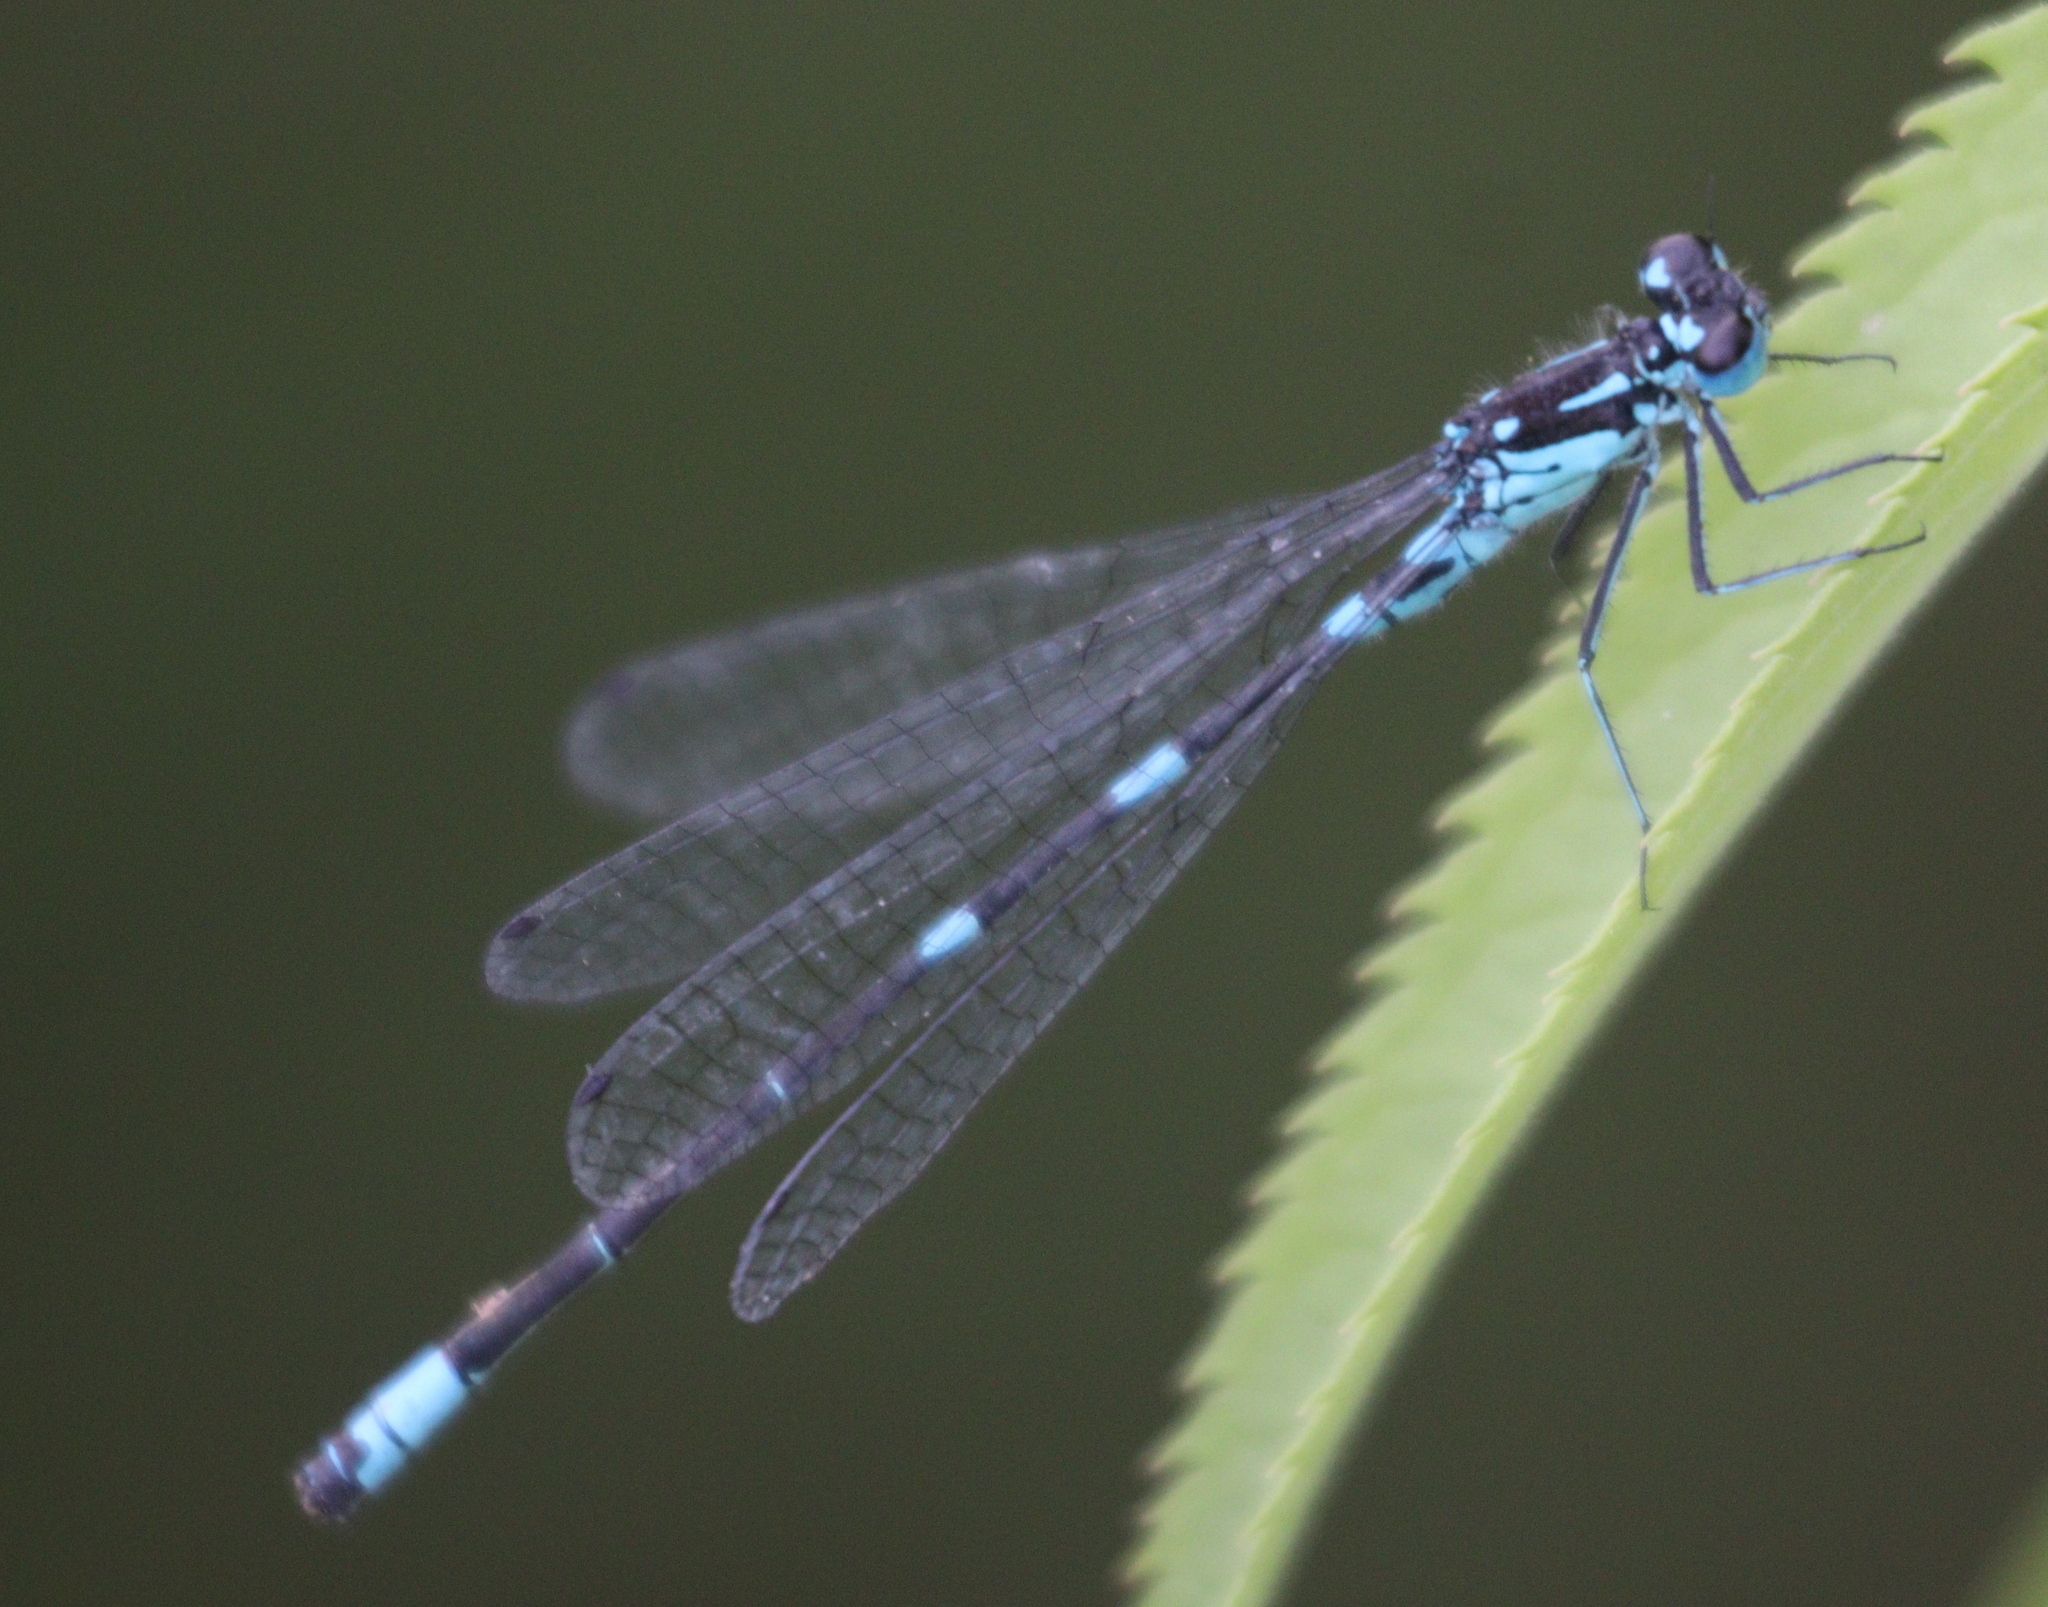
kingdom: Animalia
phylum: Arthropoda
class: Insecta
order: Odonata
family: Coenagrionidae
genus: Coenagrion
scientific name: Coenagrion pulchellum
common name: Variable bluet
